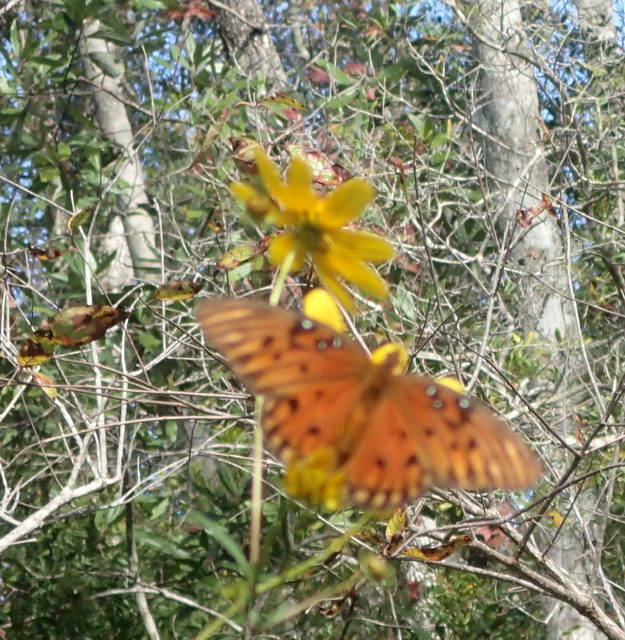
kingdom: Animalia
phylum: Arthropoda
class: Insecta
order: Lepidoptera
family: Nymphalidae
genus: Dione
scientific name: Dione vanillae
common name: Gulf fritillary
